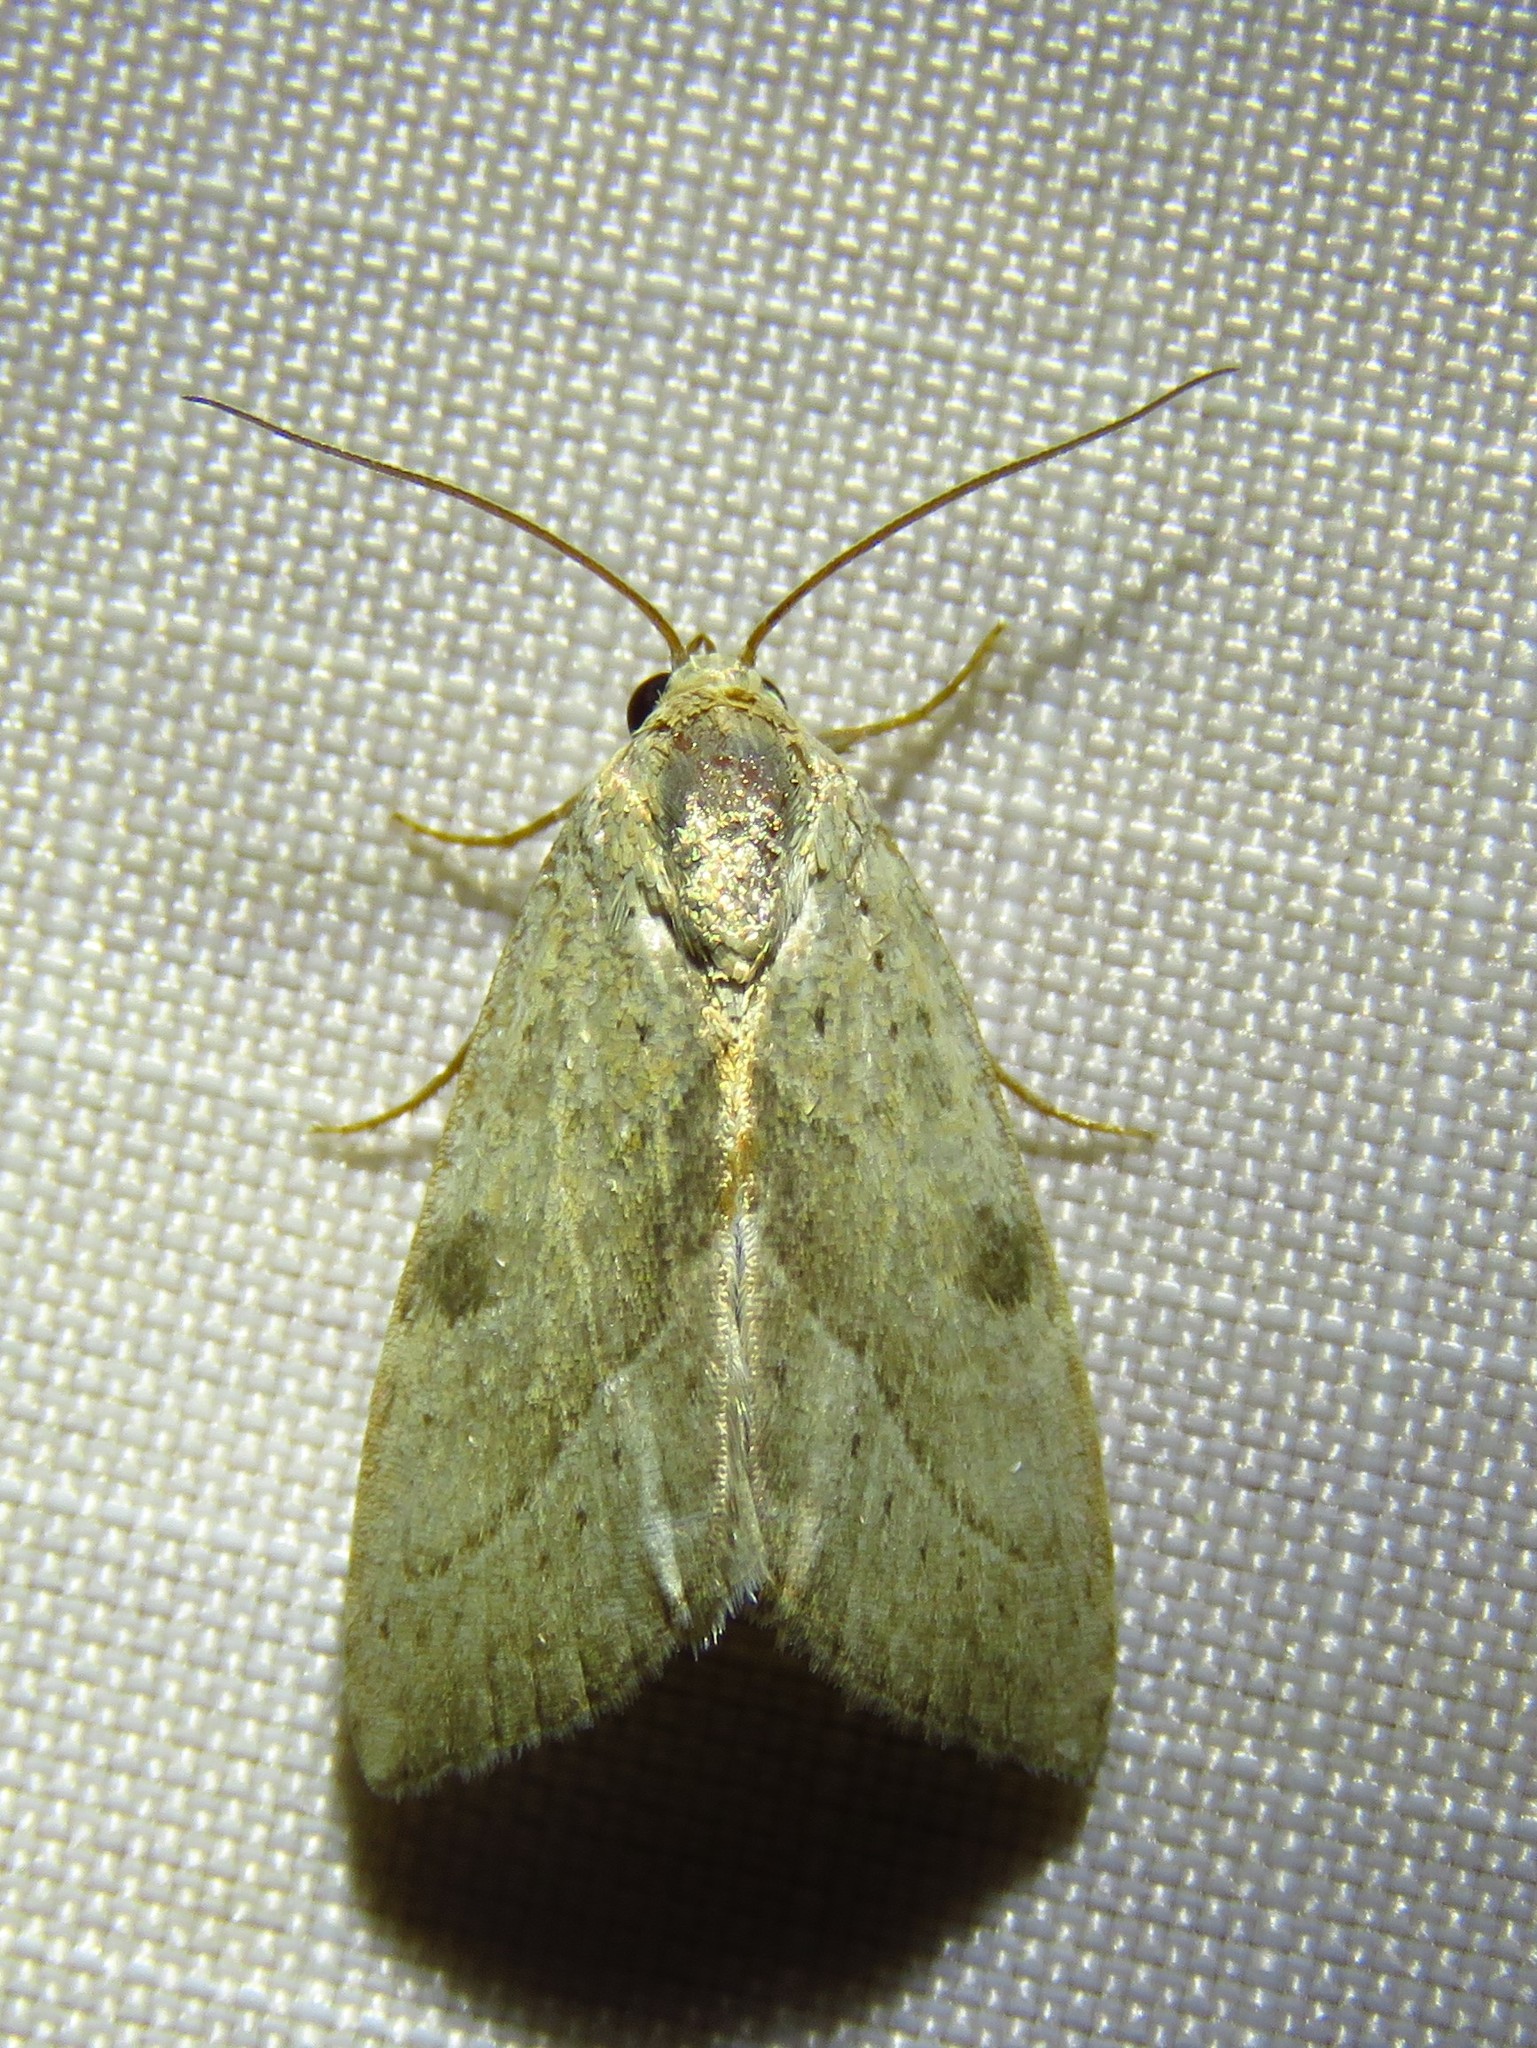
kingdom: Animalia
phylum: Arthropoda
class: Insecta
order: Lepidoptera
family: Noctuidae
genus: Galgula
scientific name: Galgula partita
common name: Wedgeling
